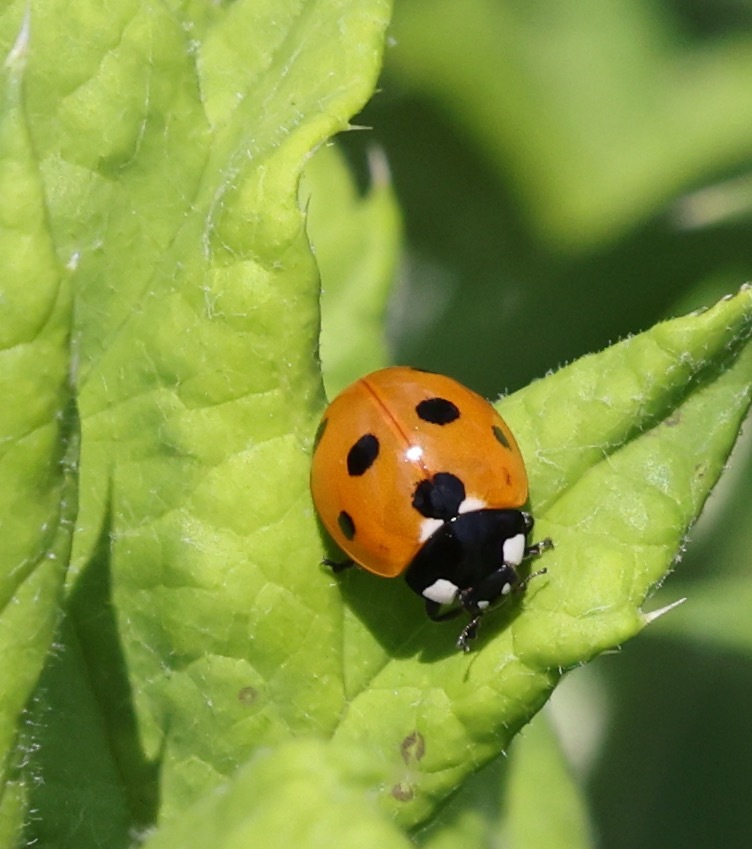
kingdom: Animalia
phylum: Arthropoda
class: Insecta
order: Coleoptera
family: Coccinellidae
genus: Coccinella
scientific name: Coccinella septempunctata
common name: Sevenspotted lady beetle
